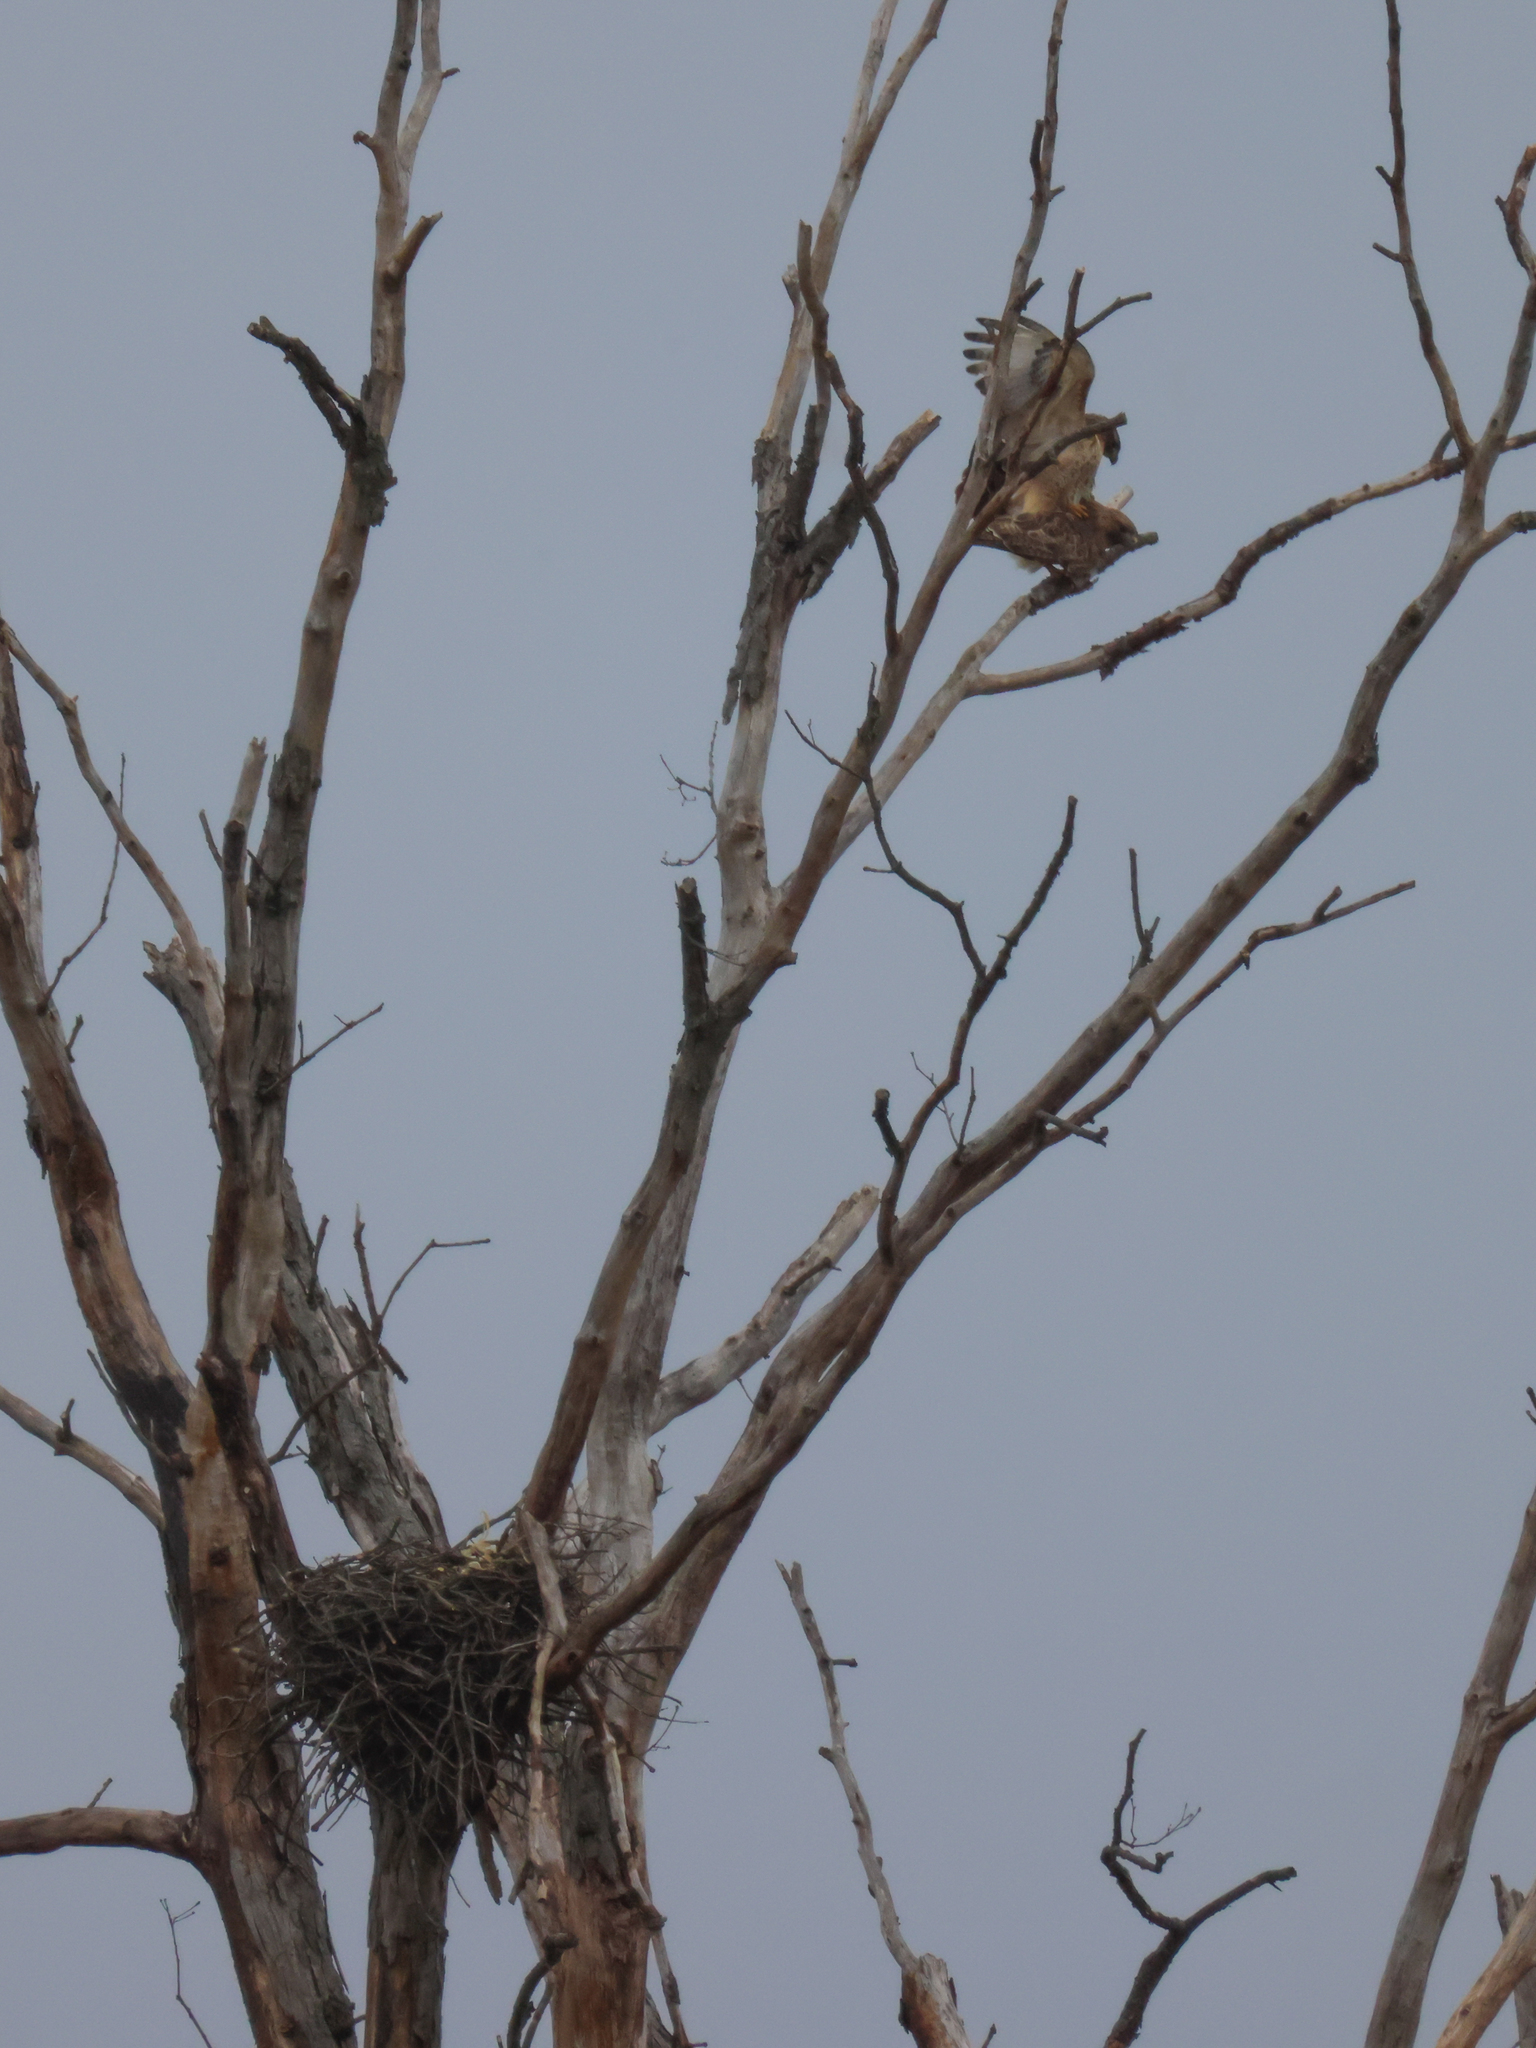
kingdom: Animalia
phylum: Chordata
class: Aves
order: Accipitriformes
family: Accipitridae
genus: Buteo
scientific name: Buteo jamaicensis
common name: Red-tailed hawk
